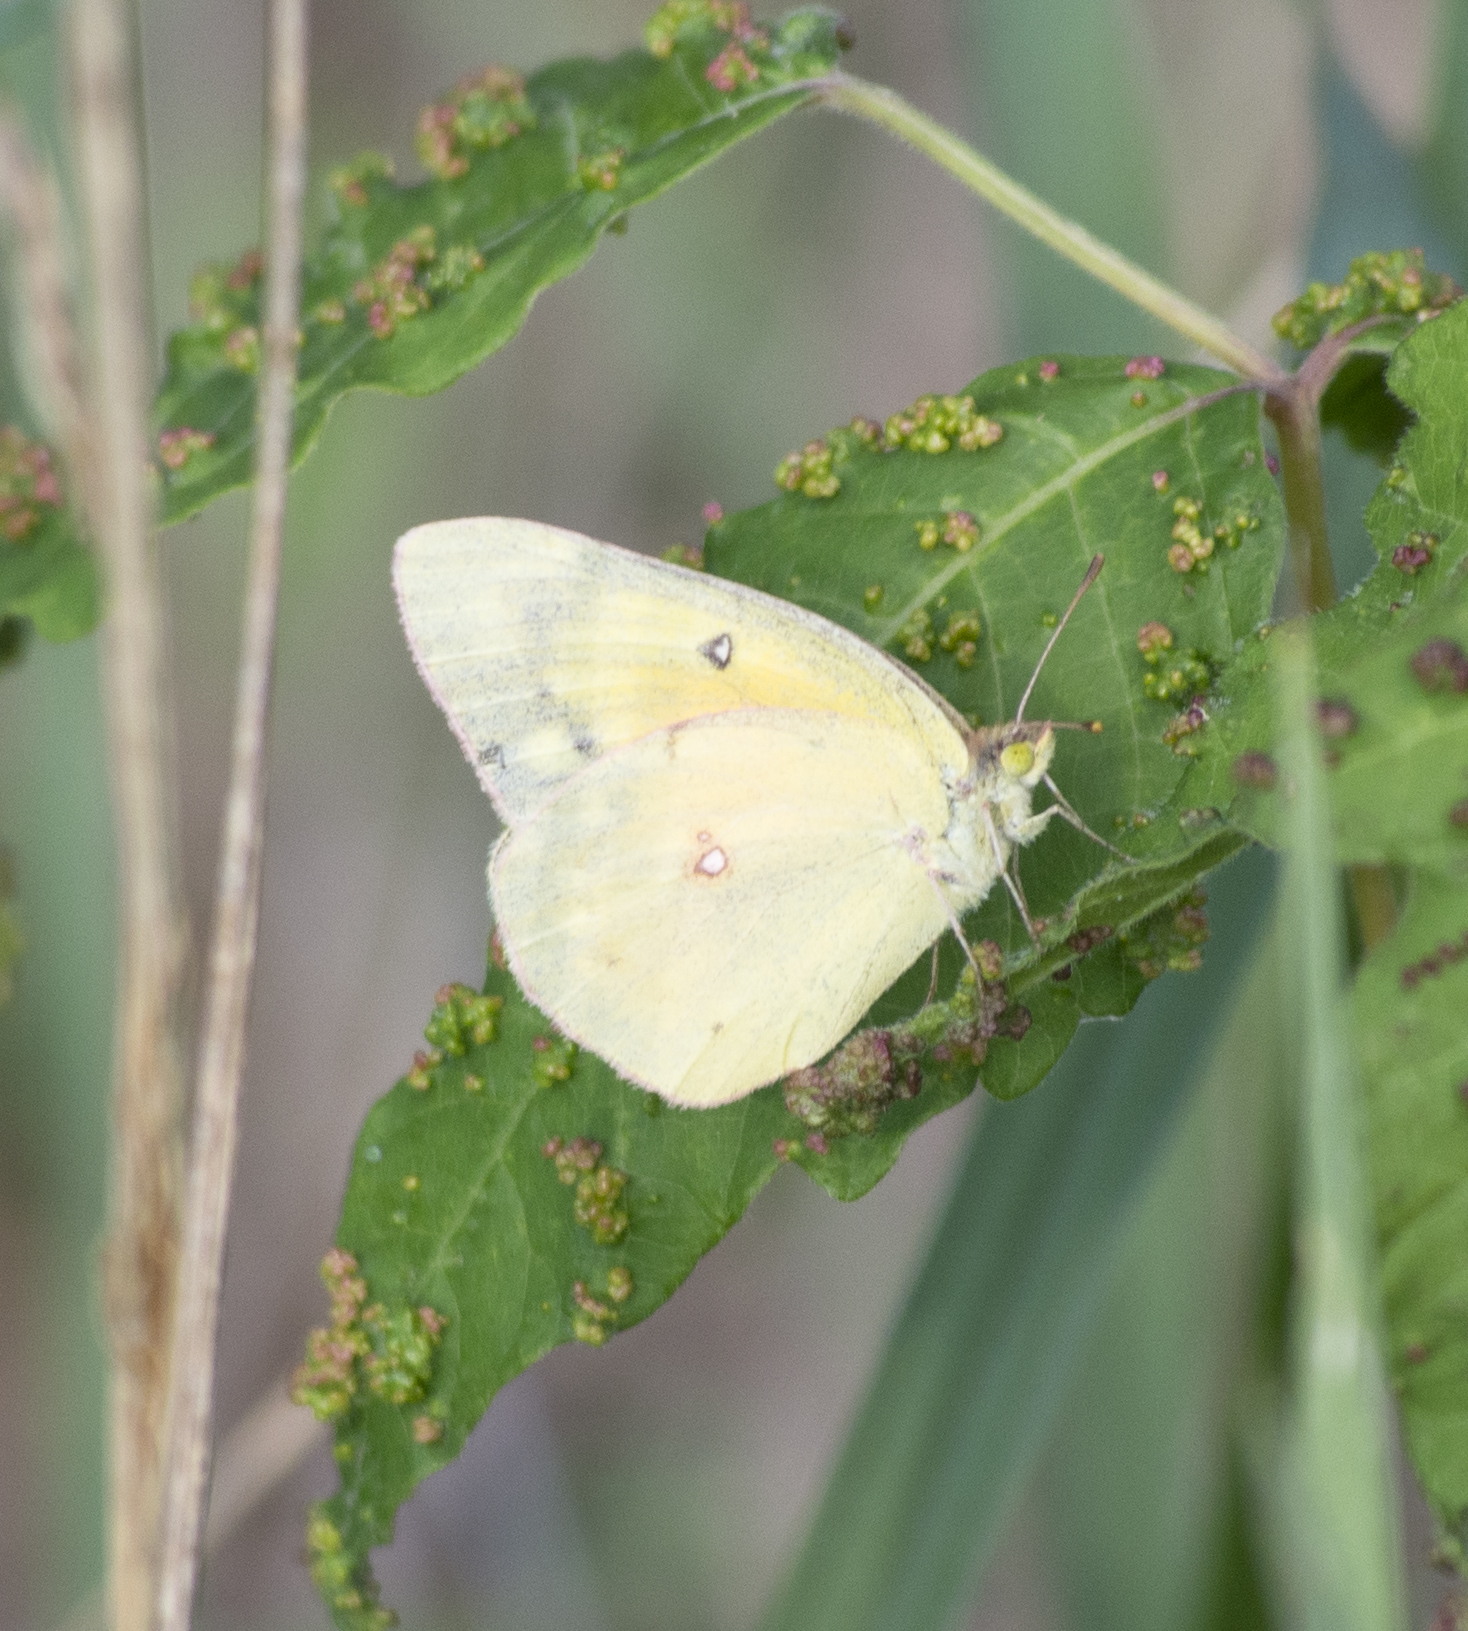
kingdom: Animalia
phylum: Arthropoda
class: Insecta
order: Lepidoptera
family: Pieridae
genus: Colias
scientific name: Colias eurytheme
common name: Alfalfa butterfly
